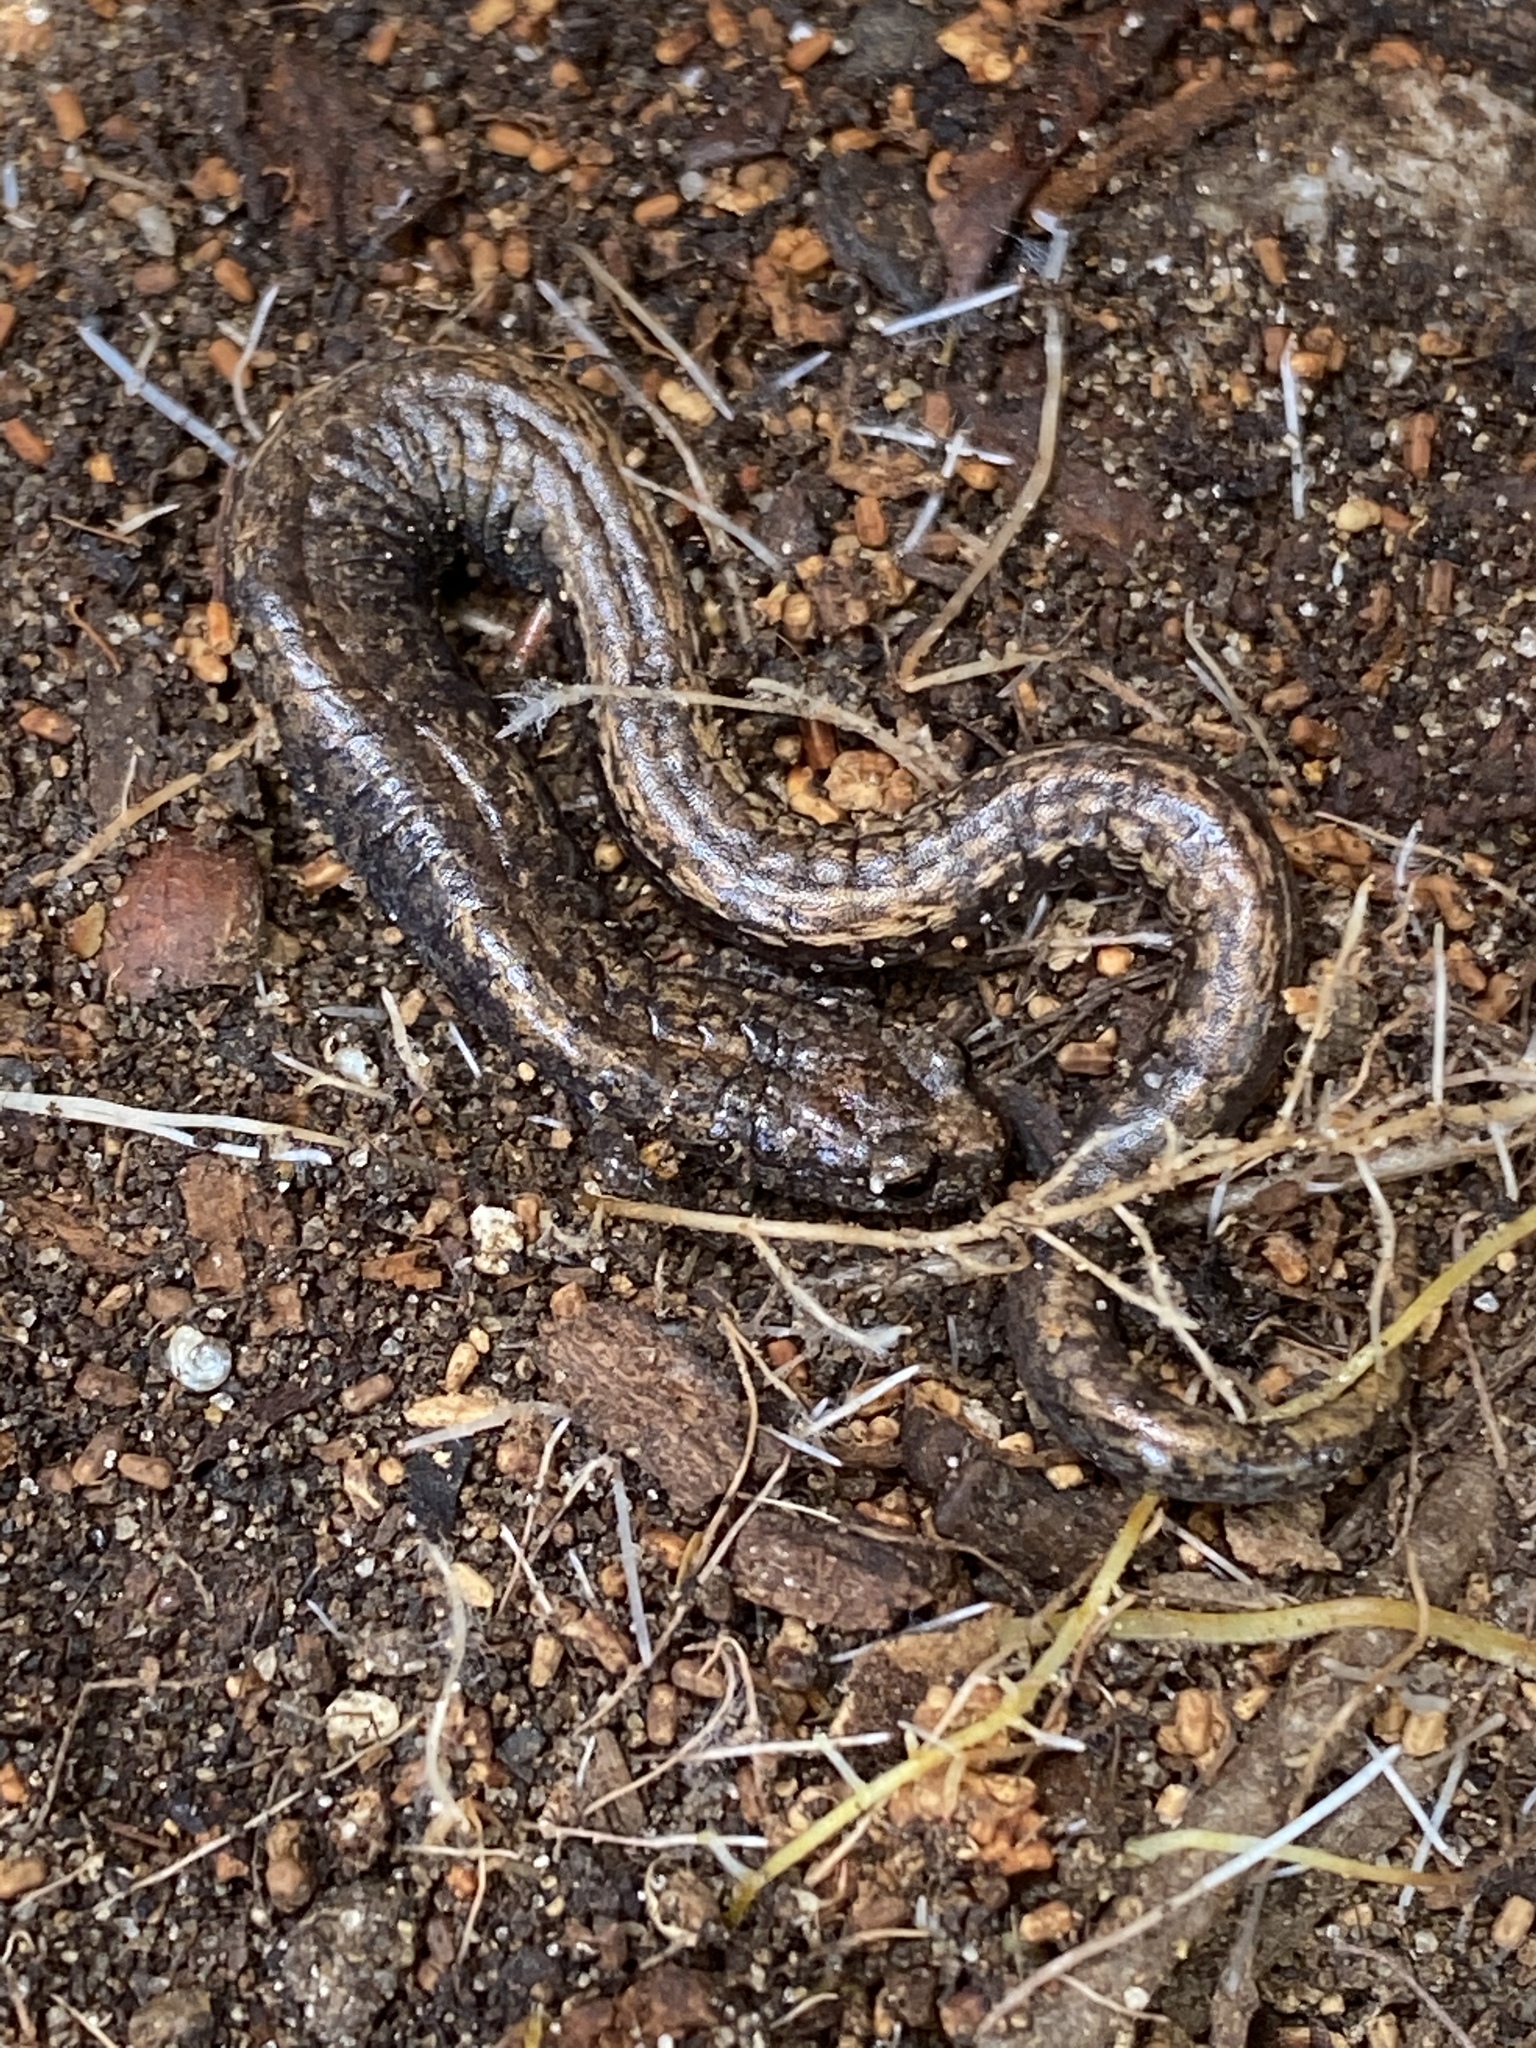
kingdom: Animalia
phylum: Chordata
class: Amphibia
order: Caudata
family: Plethodontidae
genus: Batrachoseps
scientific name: Batrachoseps attenuatus
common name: California slender salamander
